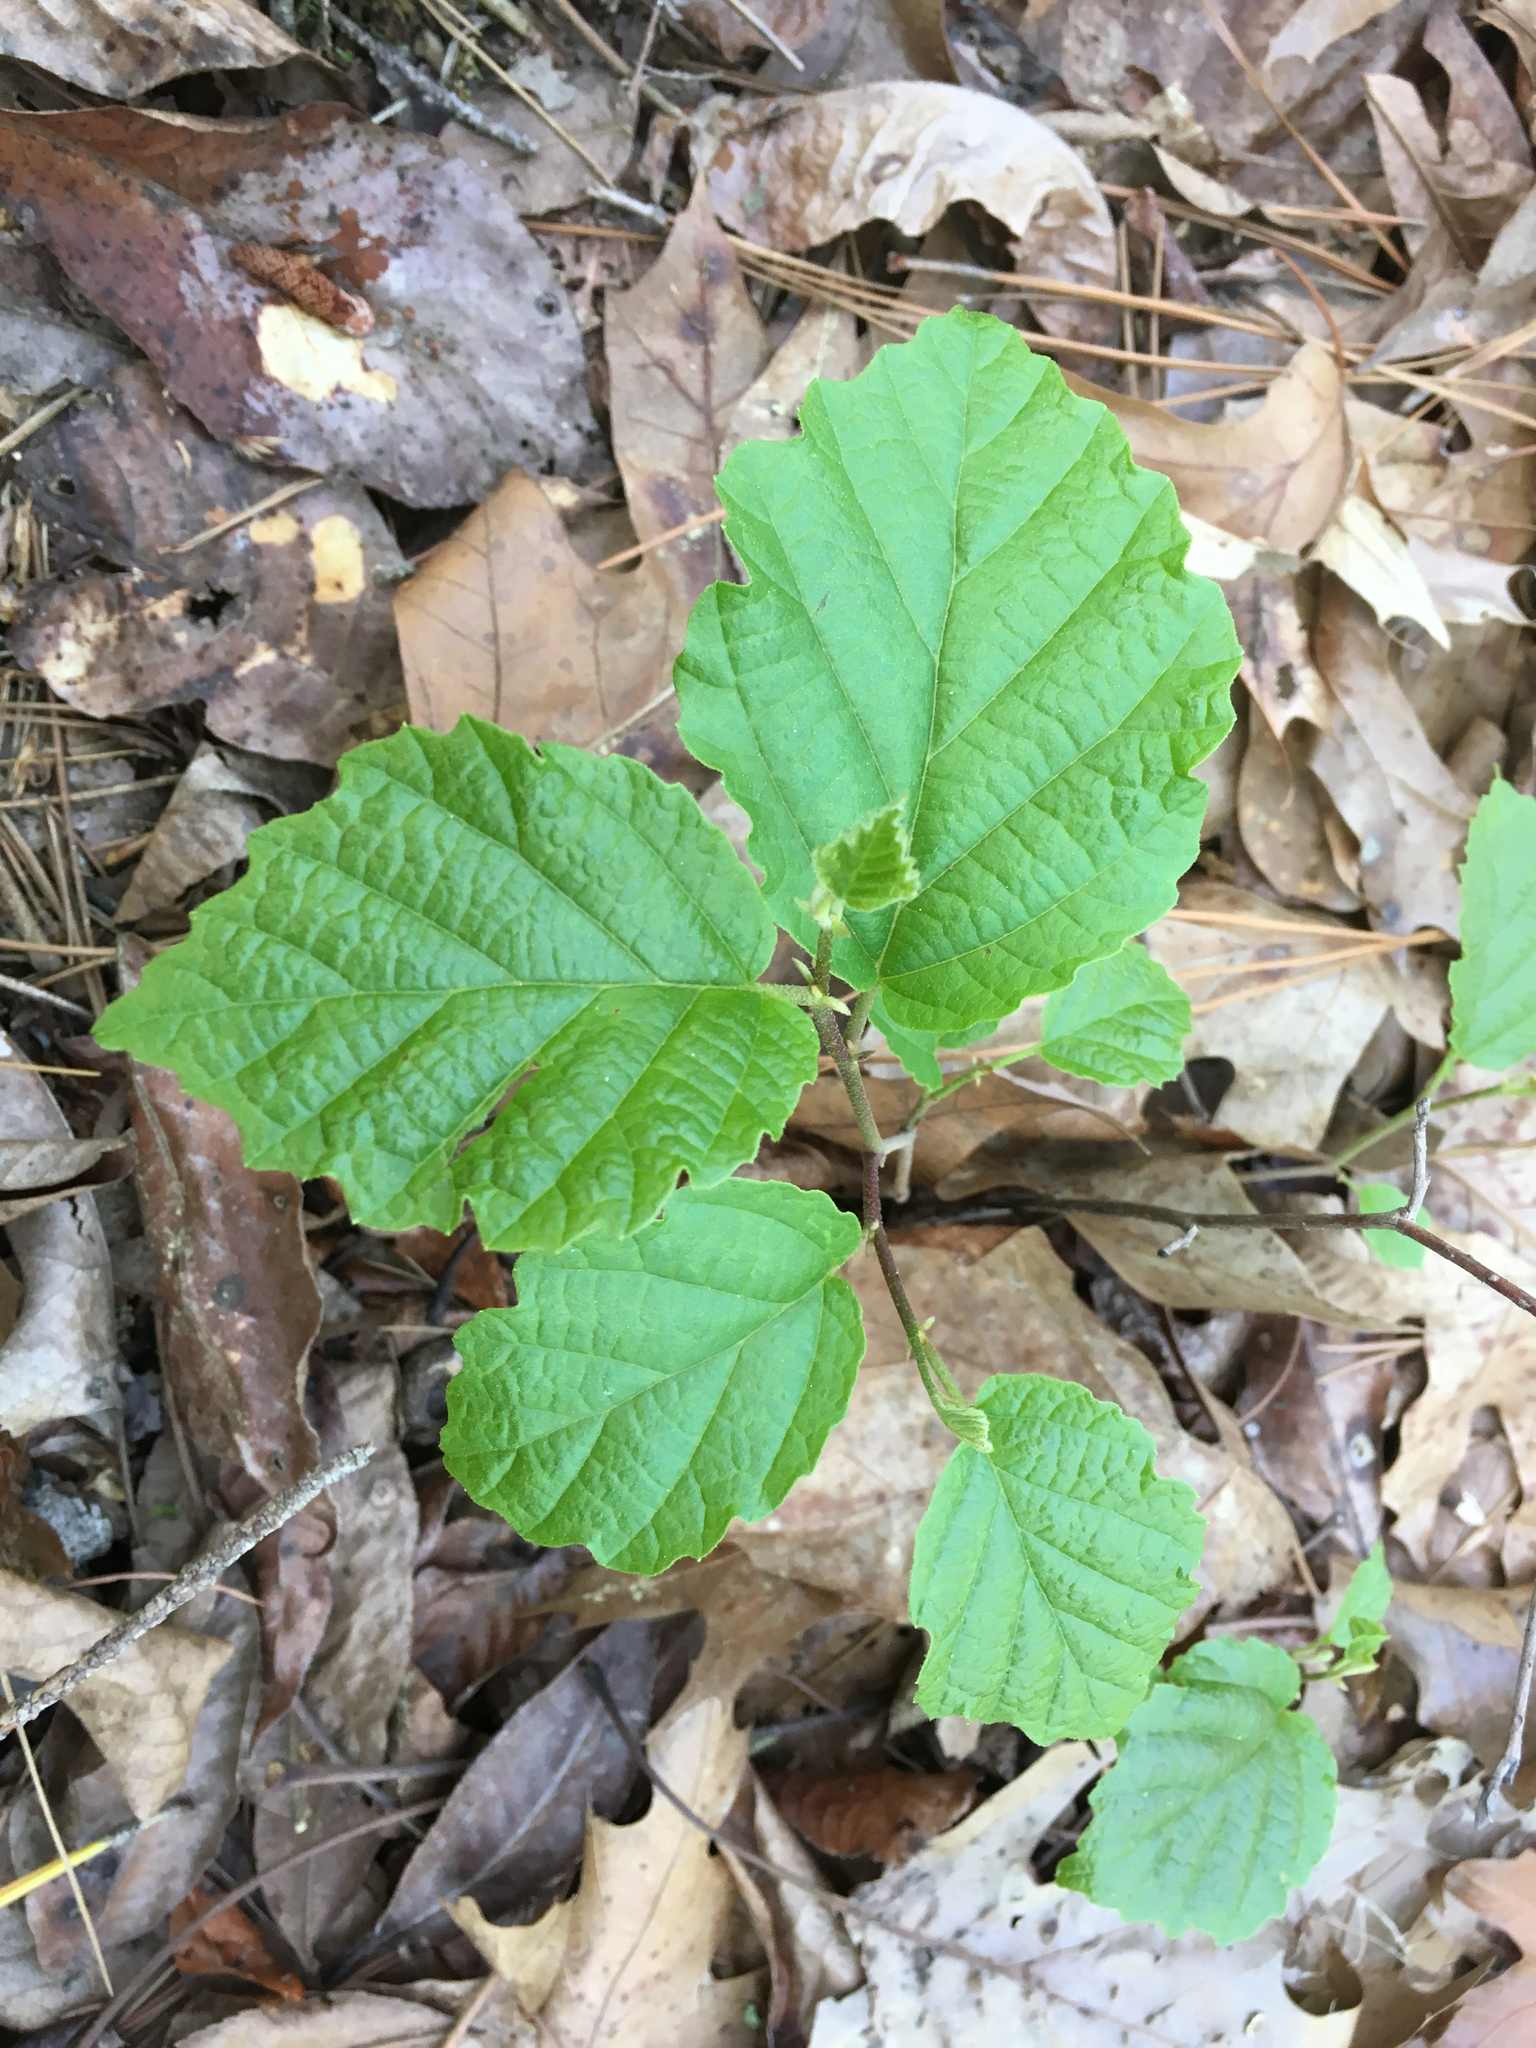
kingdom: Plantae
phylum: Tracheophyta
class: Magnoliopsida
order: Saxifragales
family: Hamamelidaceae
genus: Hamamelis
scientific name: Hamamelis virginiana
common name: Witch-hazel
